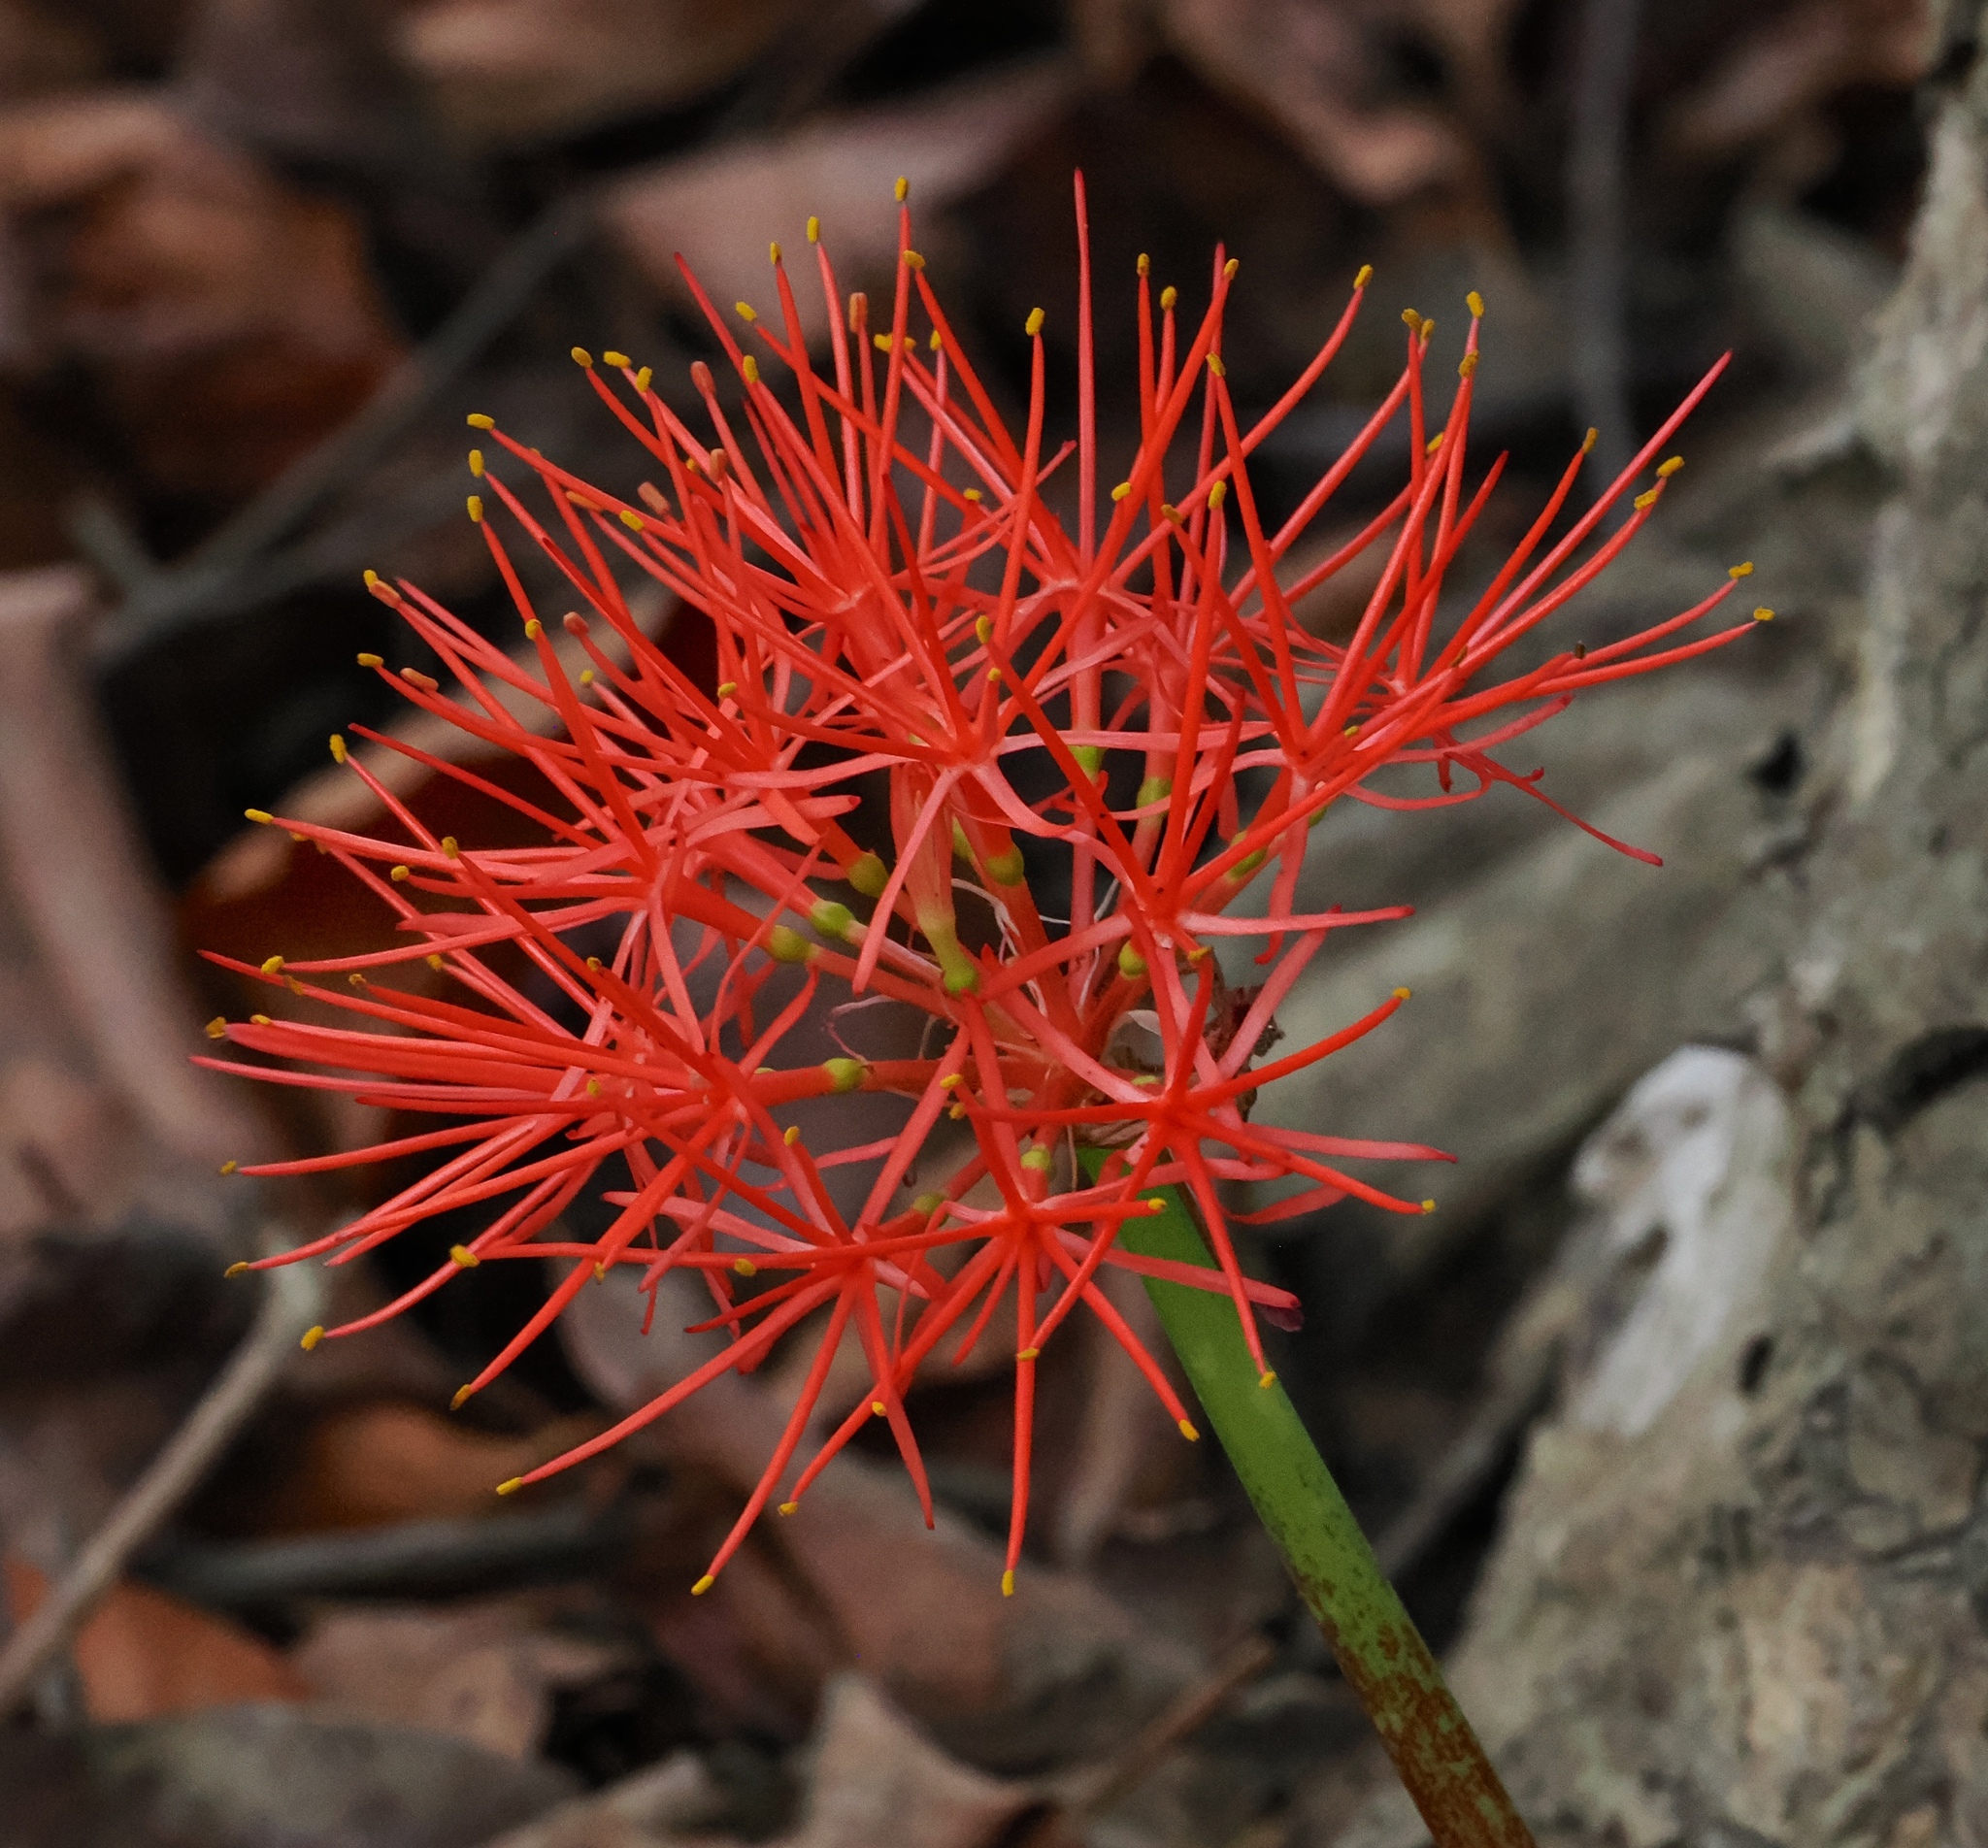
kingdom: Plantae
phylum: Tracheophyta
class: Liliopsida
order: Asparagales
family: Amaryllidaceae
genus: Scadoxus
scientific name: Scadoxus multiflorus
